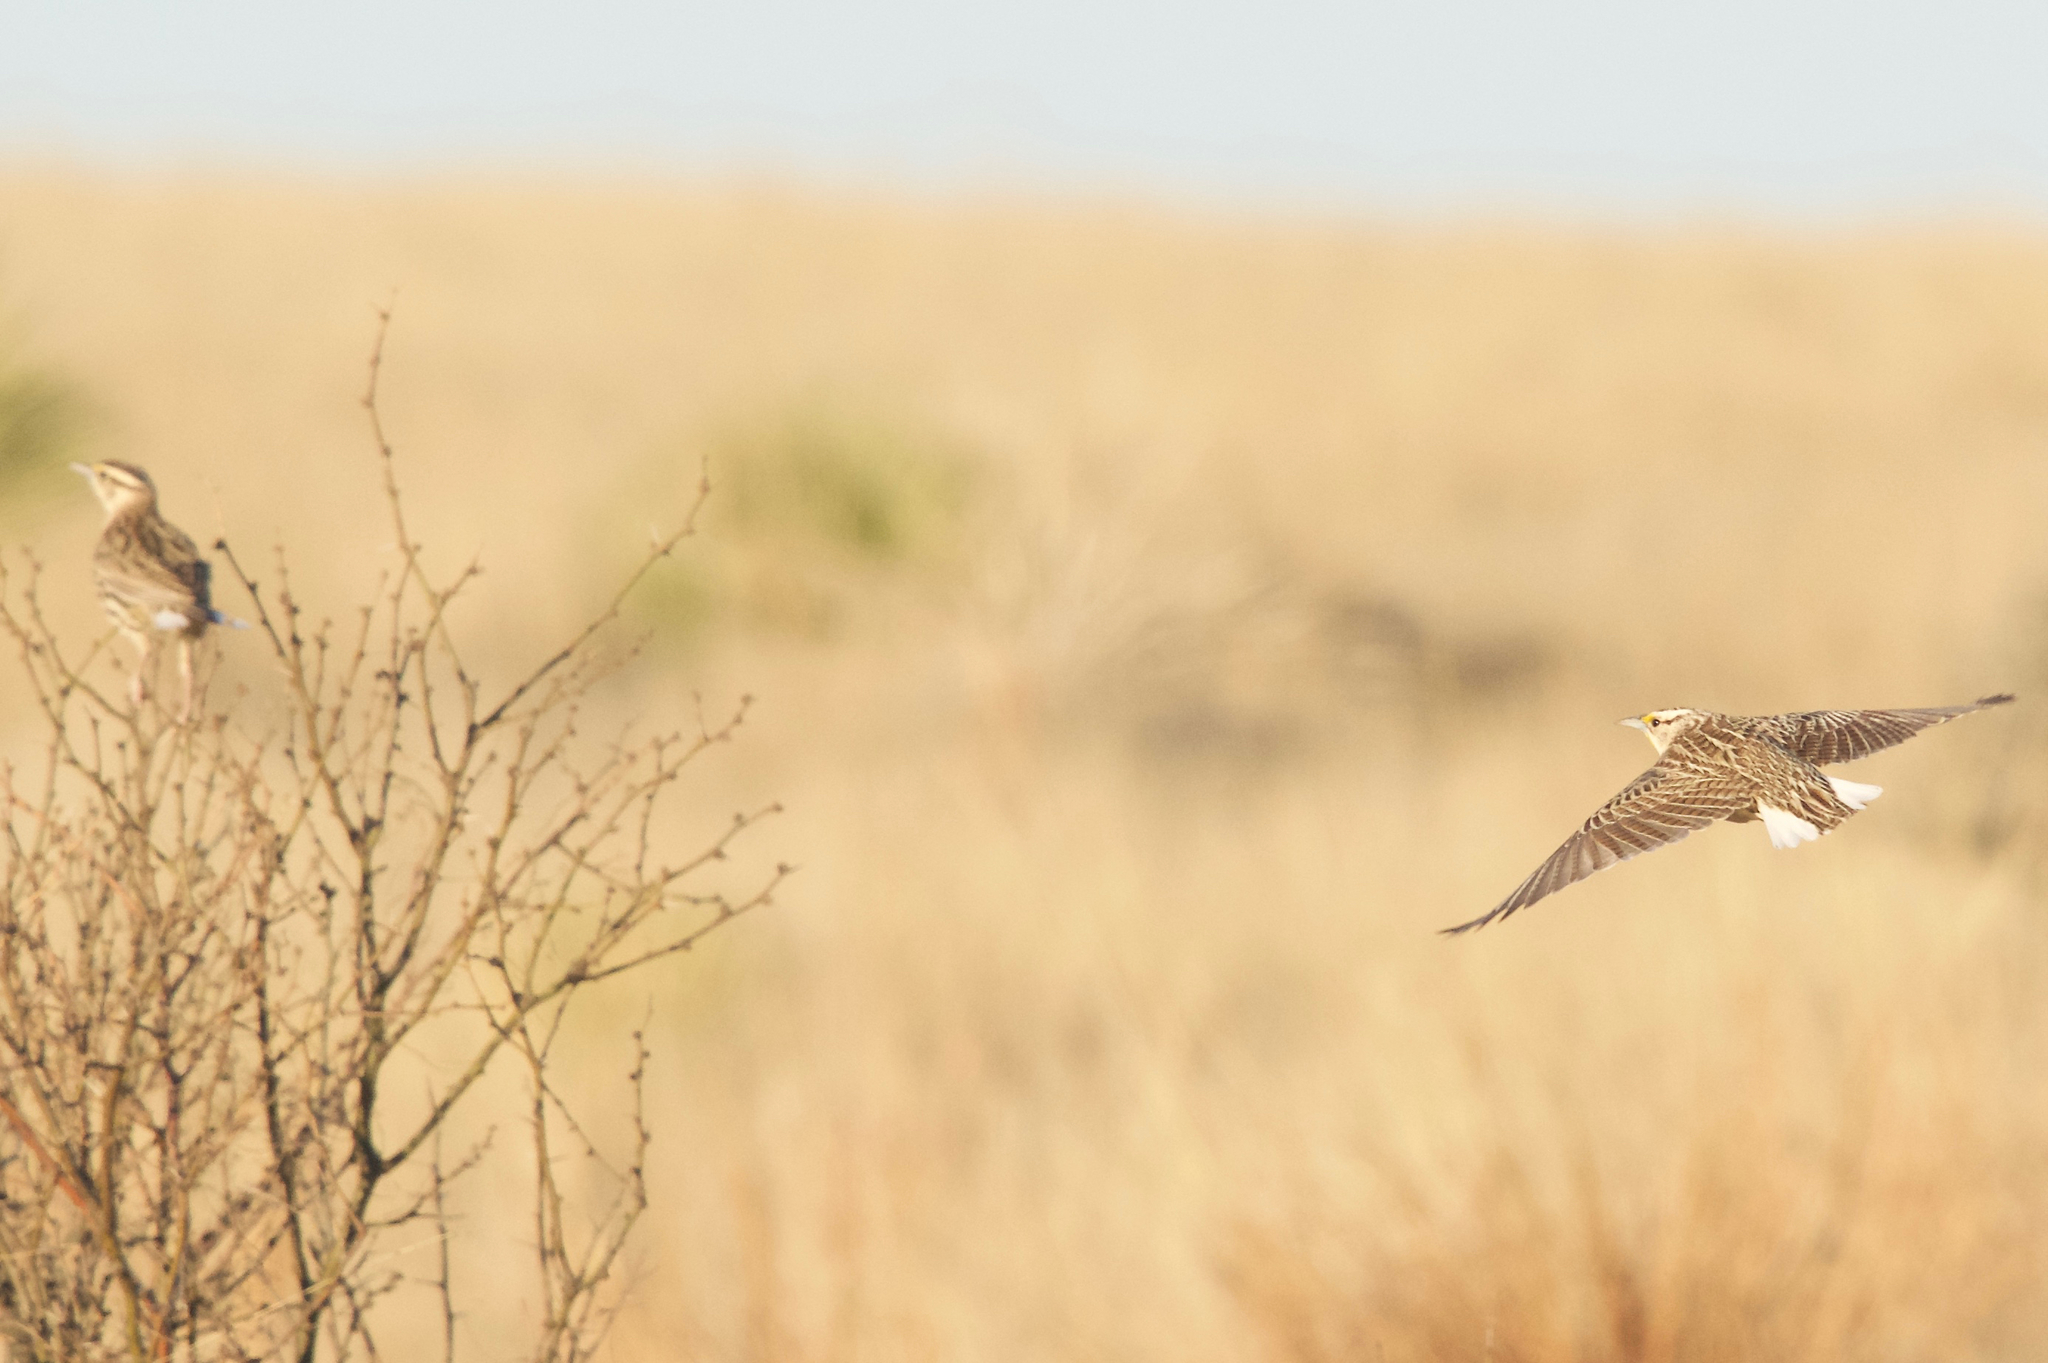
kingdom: Animalia
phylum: Chordata
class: Aves
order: Passeriformes
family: Icteridae
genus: Sturnella
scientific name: Sturnella lilianae
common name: Lilian's meadowlark
